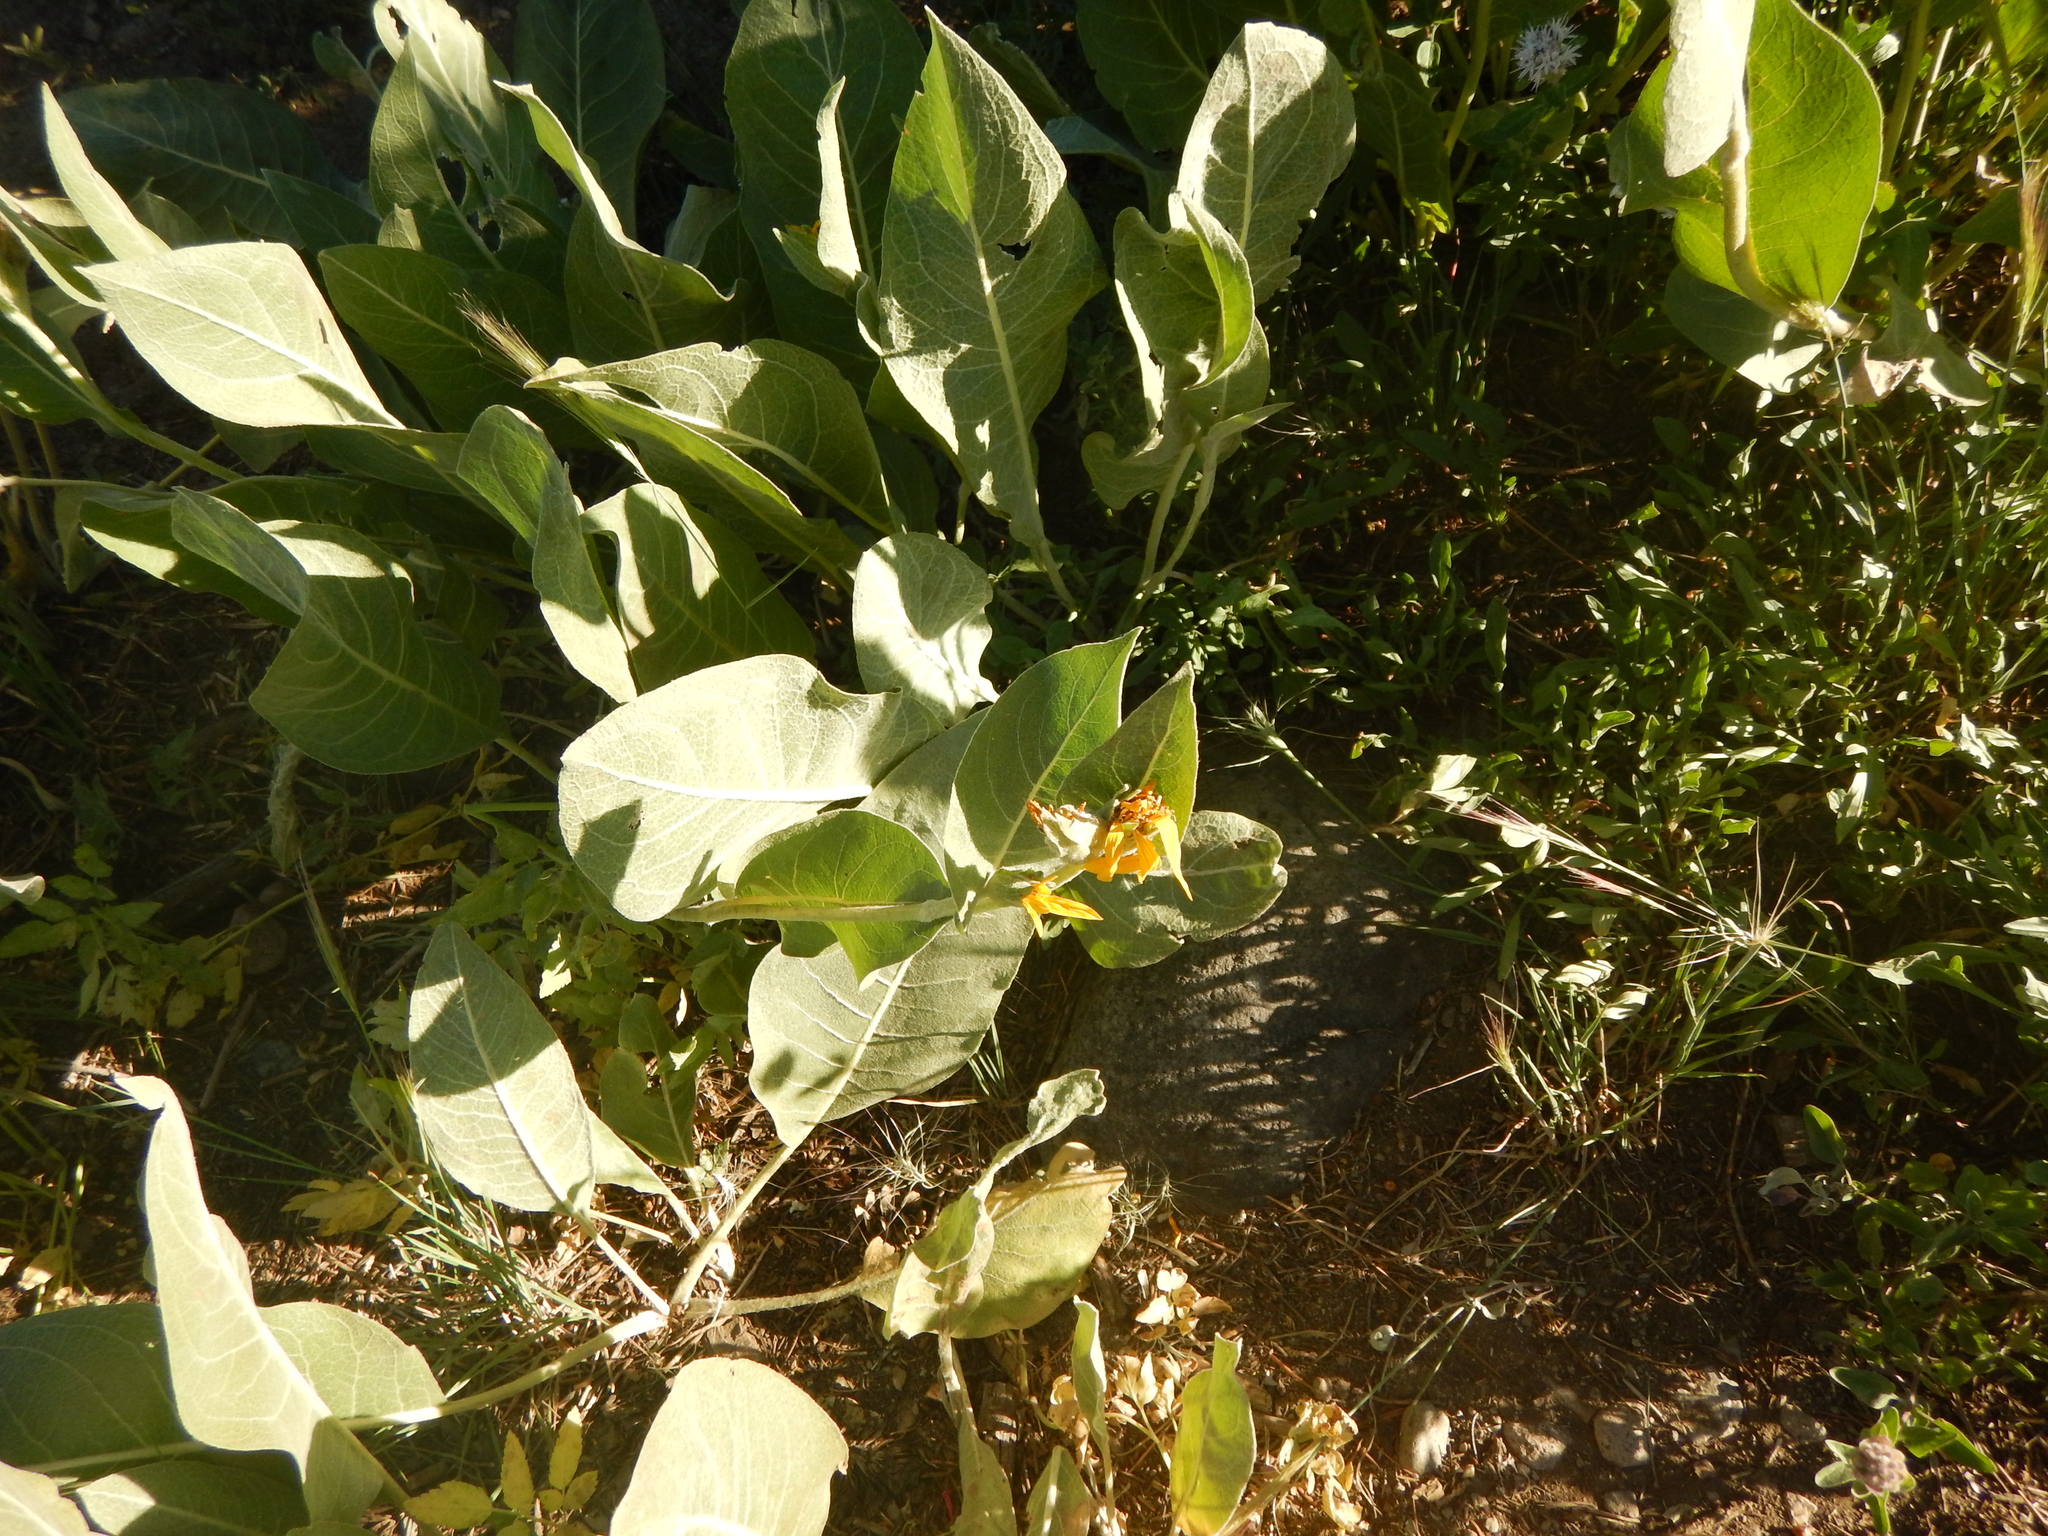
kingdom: Plantae
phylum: Tracheophyta
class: Magnoliopsida
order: Asterales
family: Asteraceae
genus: Wyethia
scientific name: Wyethia mollis
